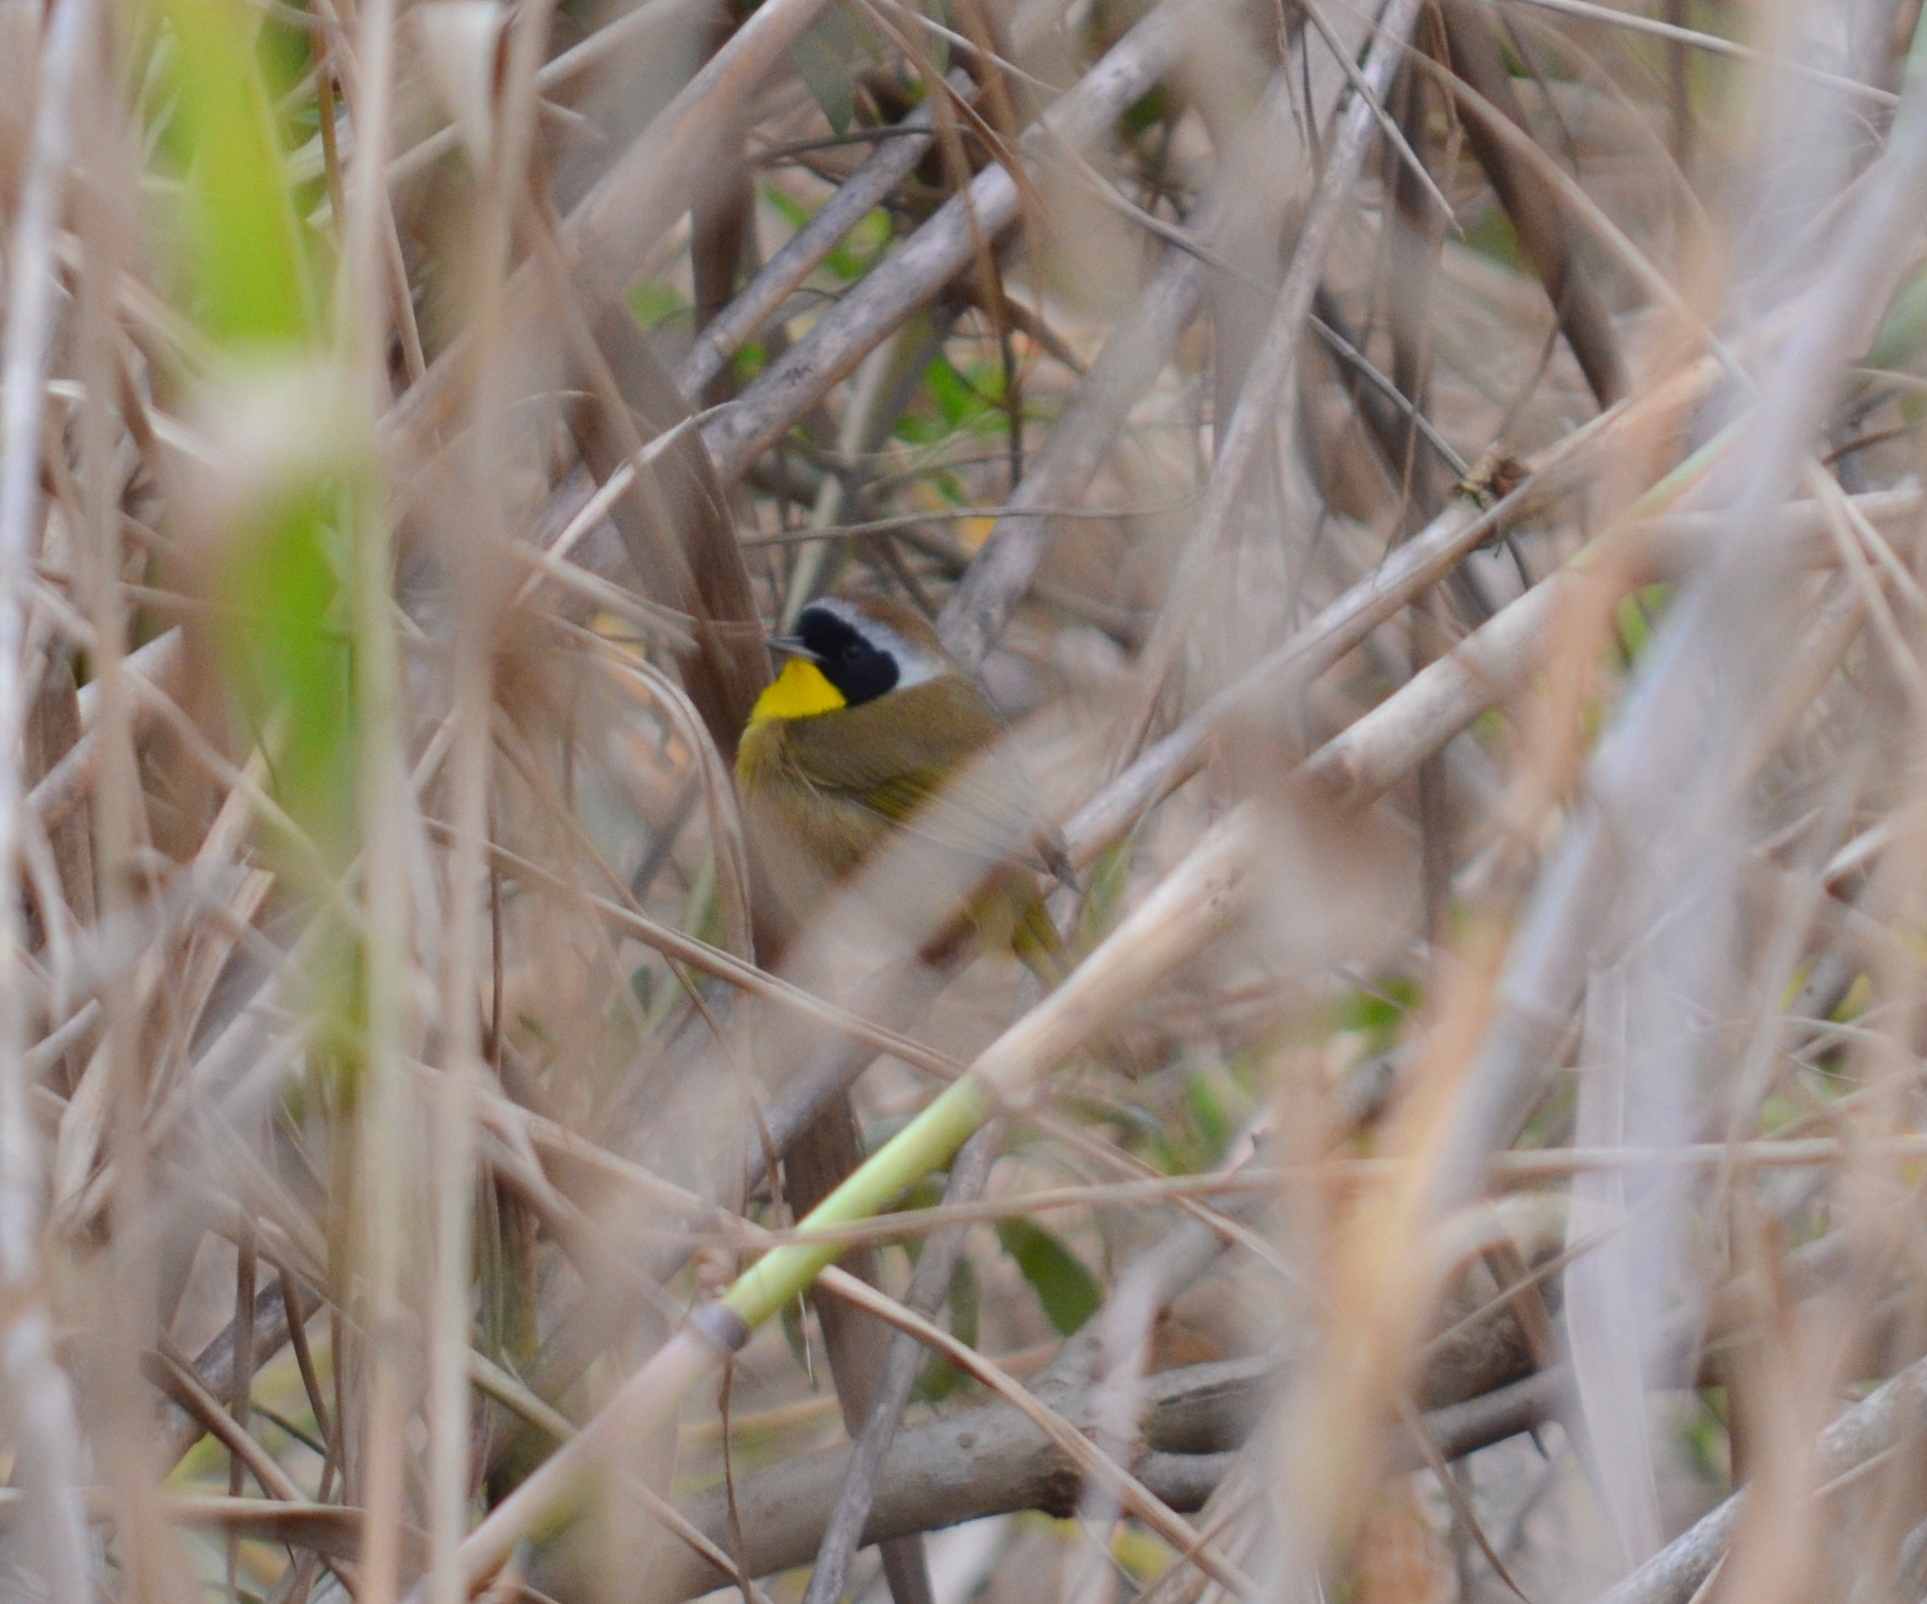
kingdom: Animalia
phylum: Chordata
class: Aves
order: Passeriformes
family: Parulidae
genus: Geothlypis
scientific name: Geothlypis trichas
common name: Common yellowthroat
